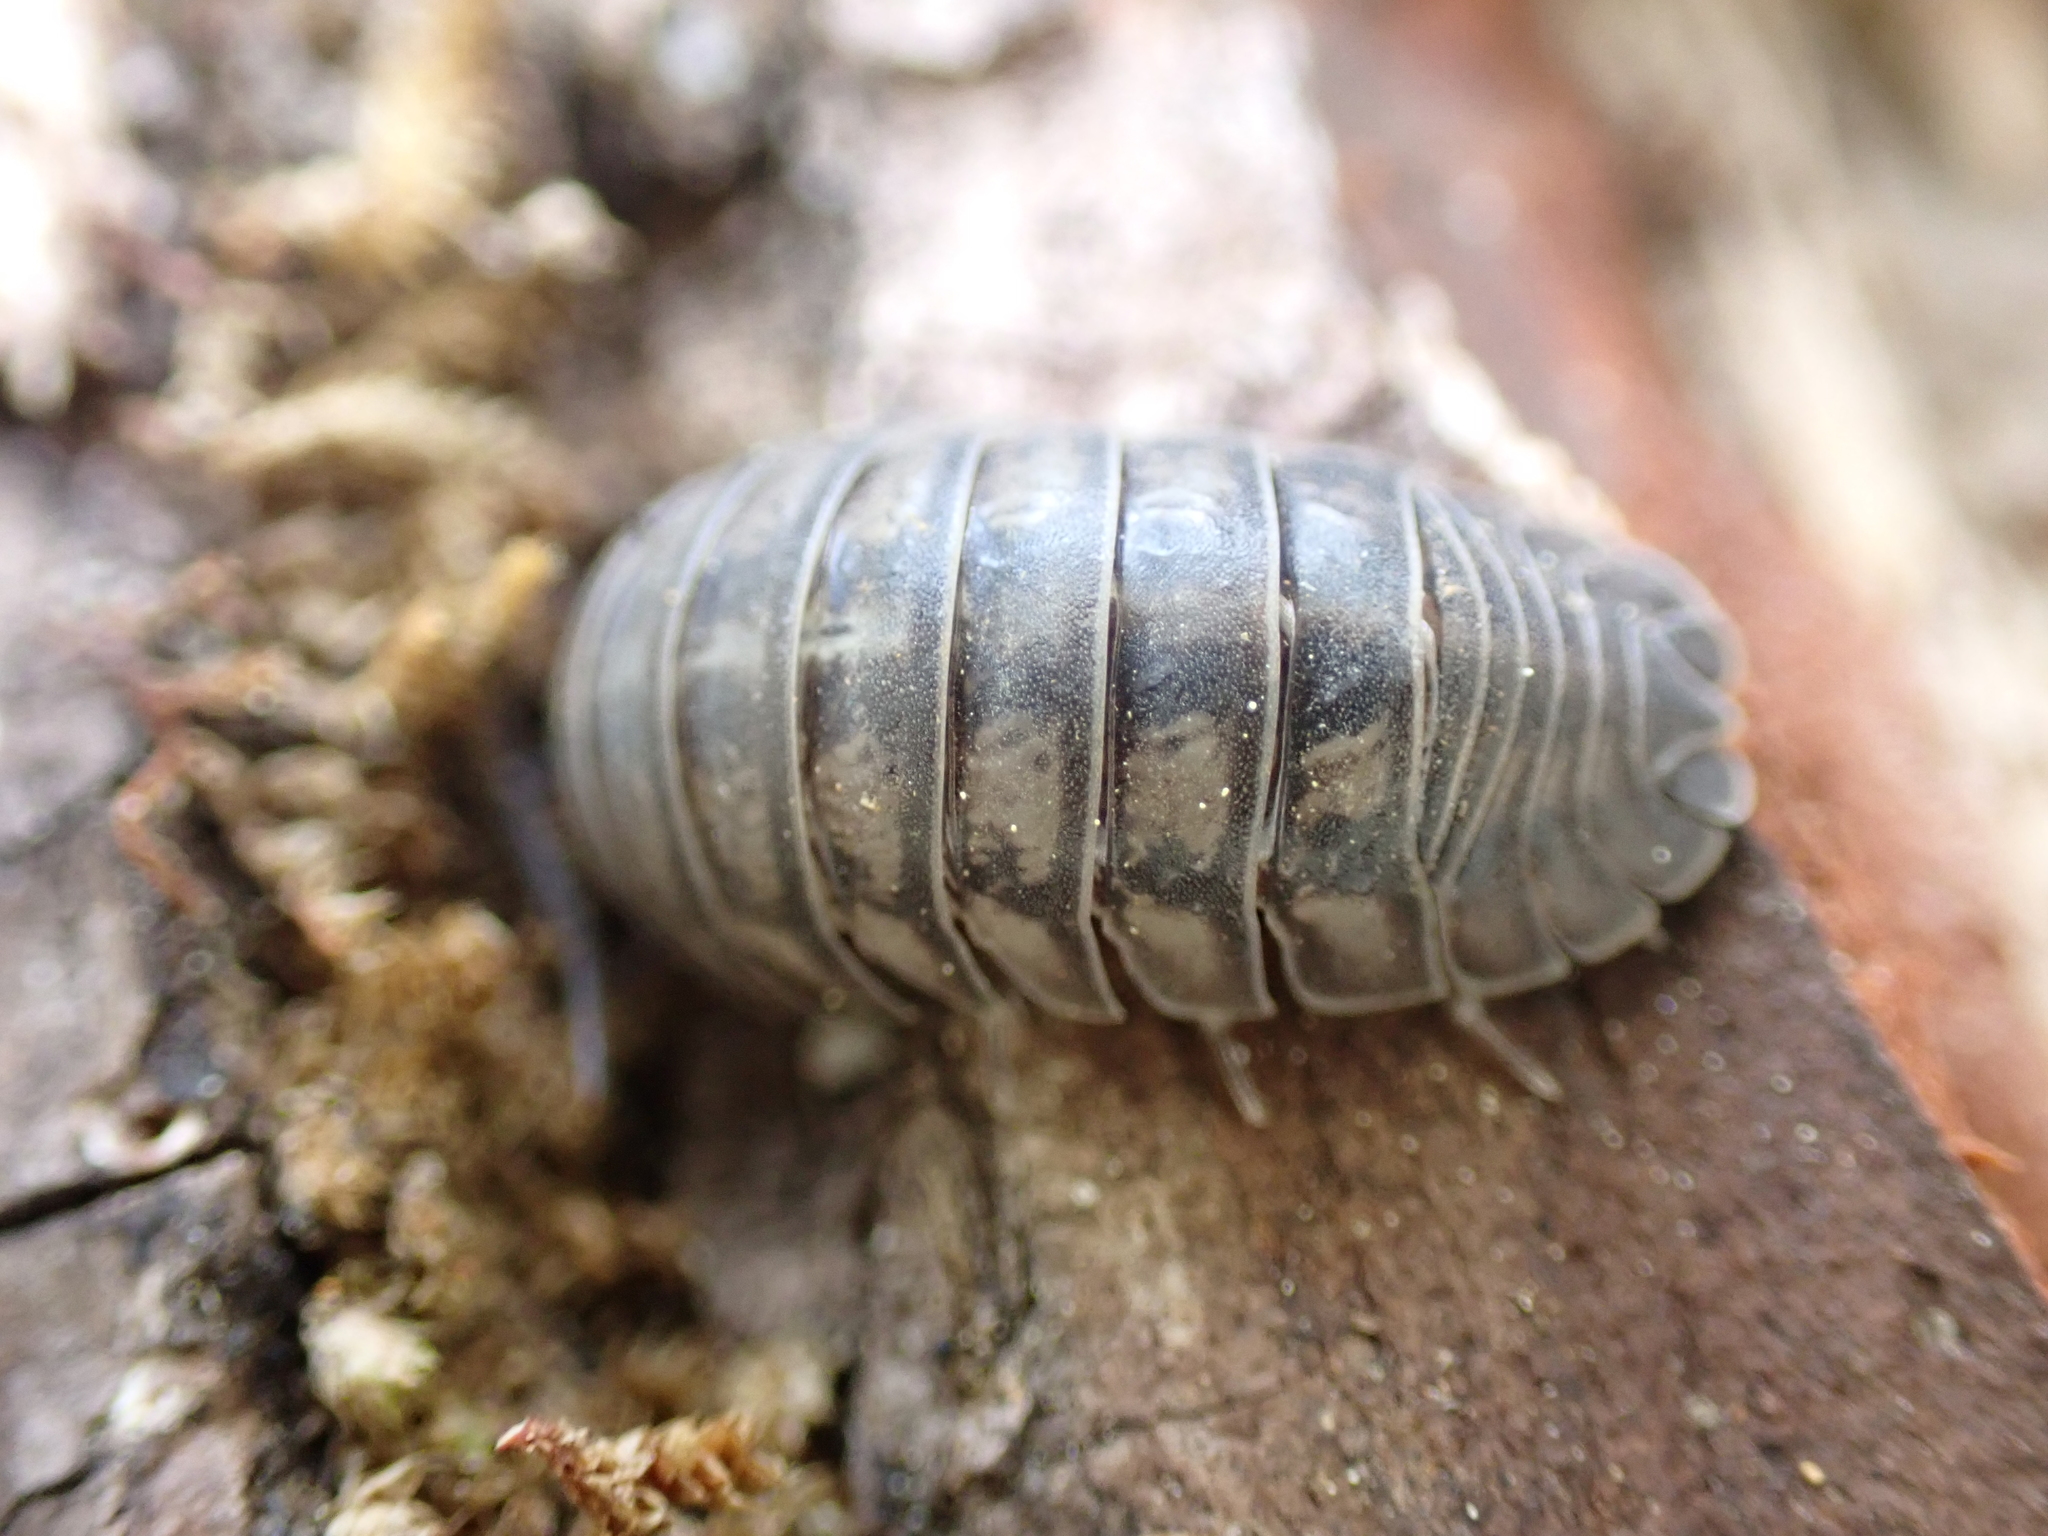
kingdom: Animalia
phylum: Arthropoda
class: Malacostraca
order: Isopoda
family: Armadillidiidae
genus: Armadillidium
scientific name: Armadillidium nasatum
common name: Isopod
